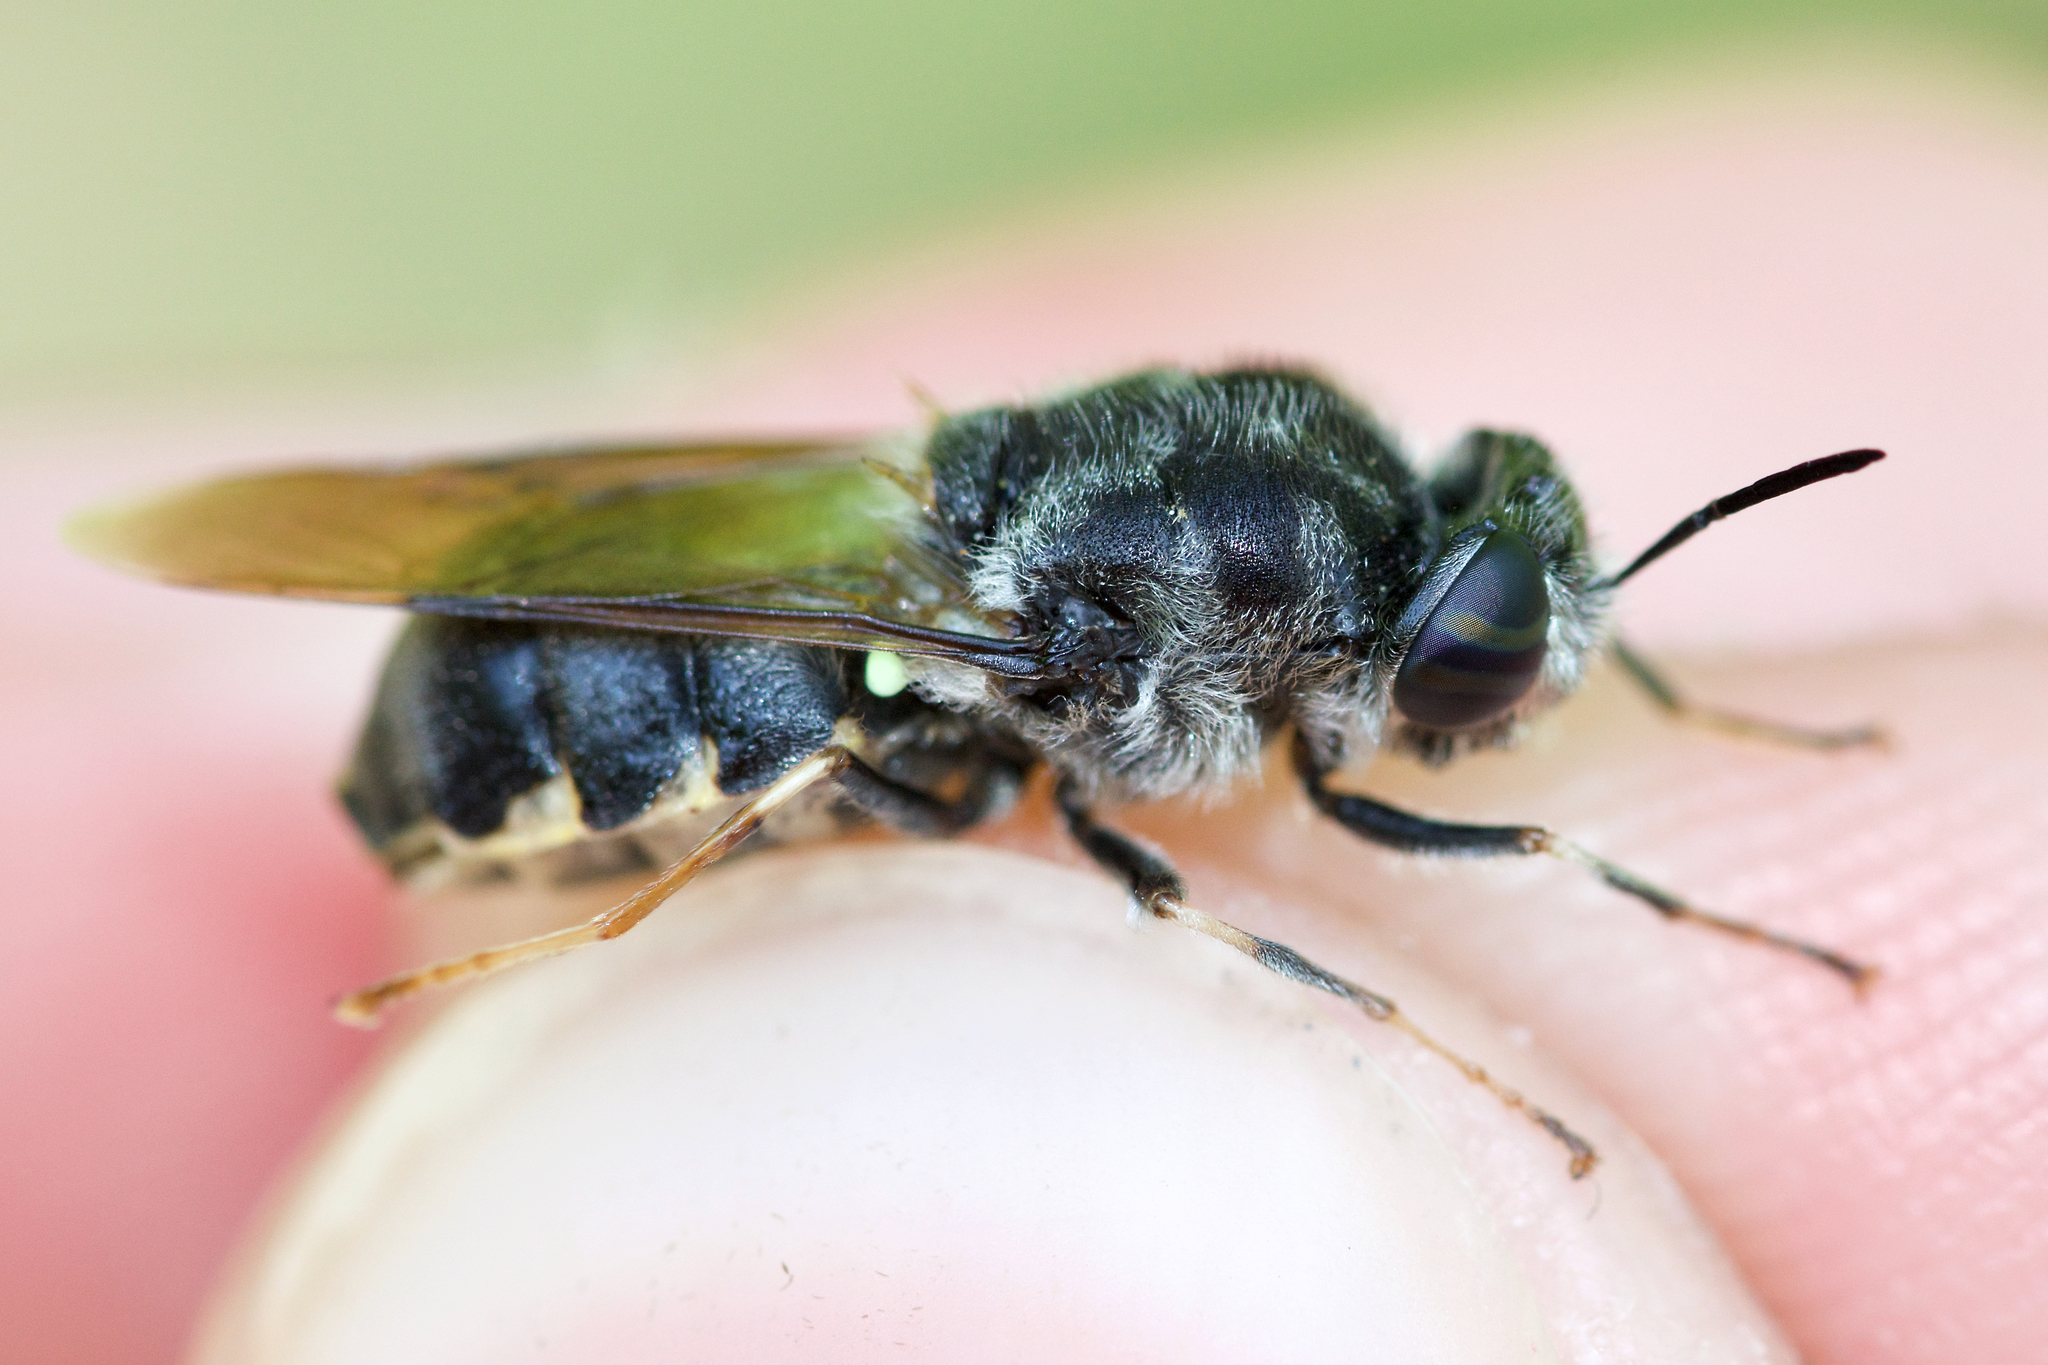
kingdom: Animalia
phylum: Arthropoda
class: Insecta
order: Diptera
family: Stratiomyidae
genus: Stratiomys
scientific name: Stratiomys meigenii
